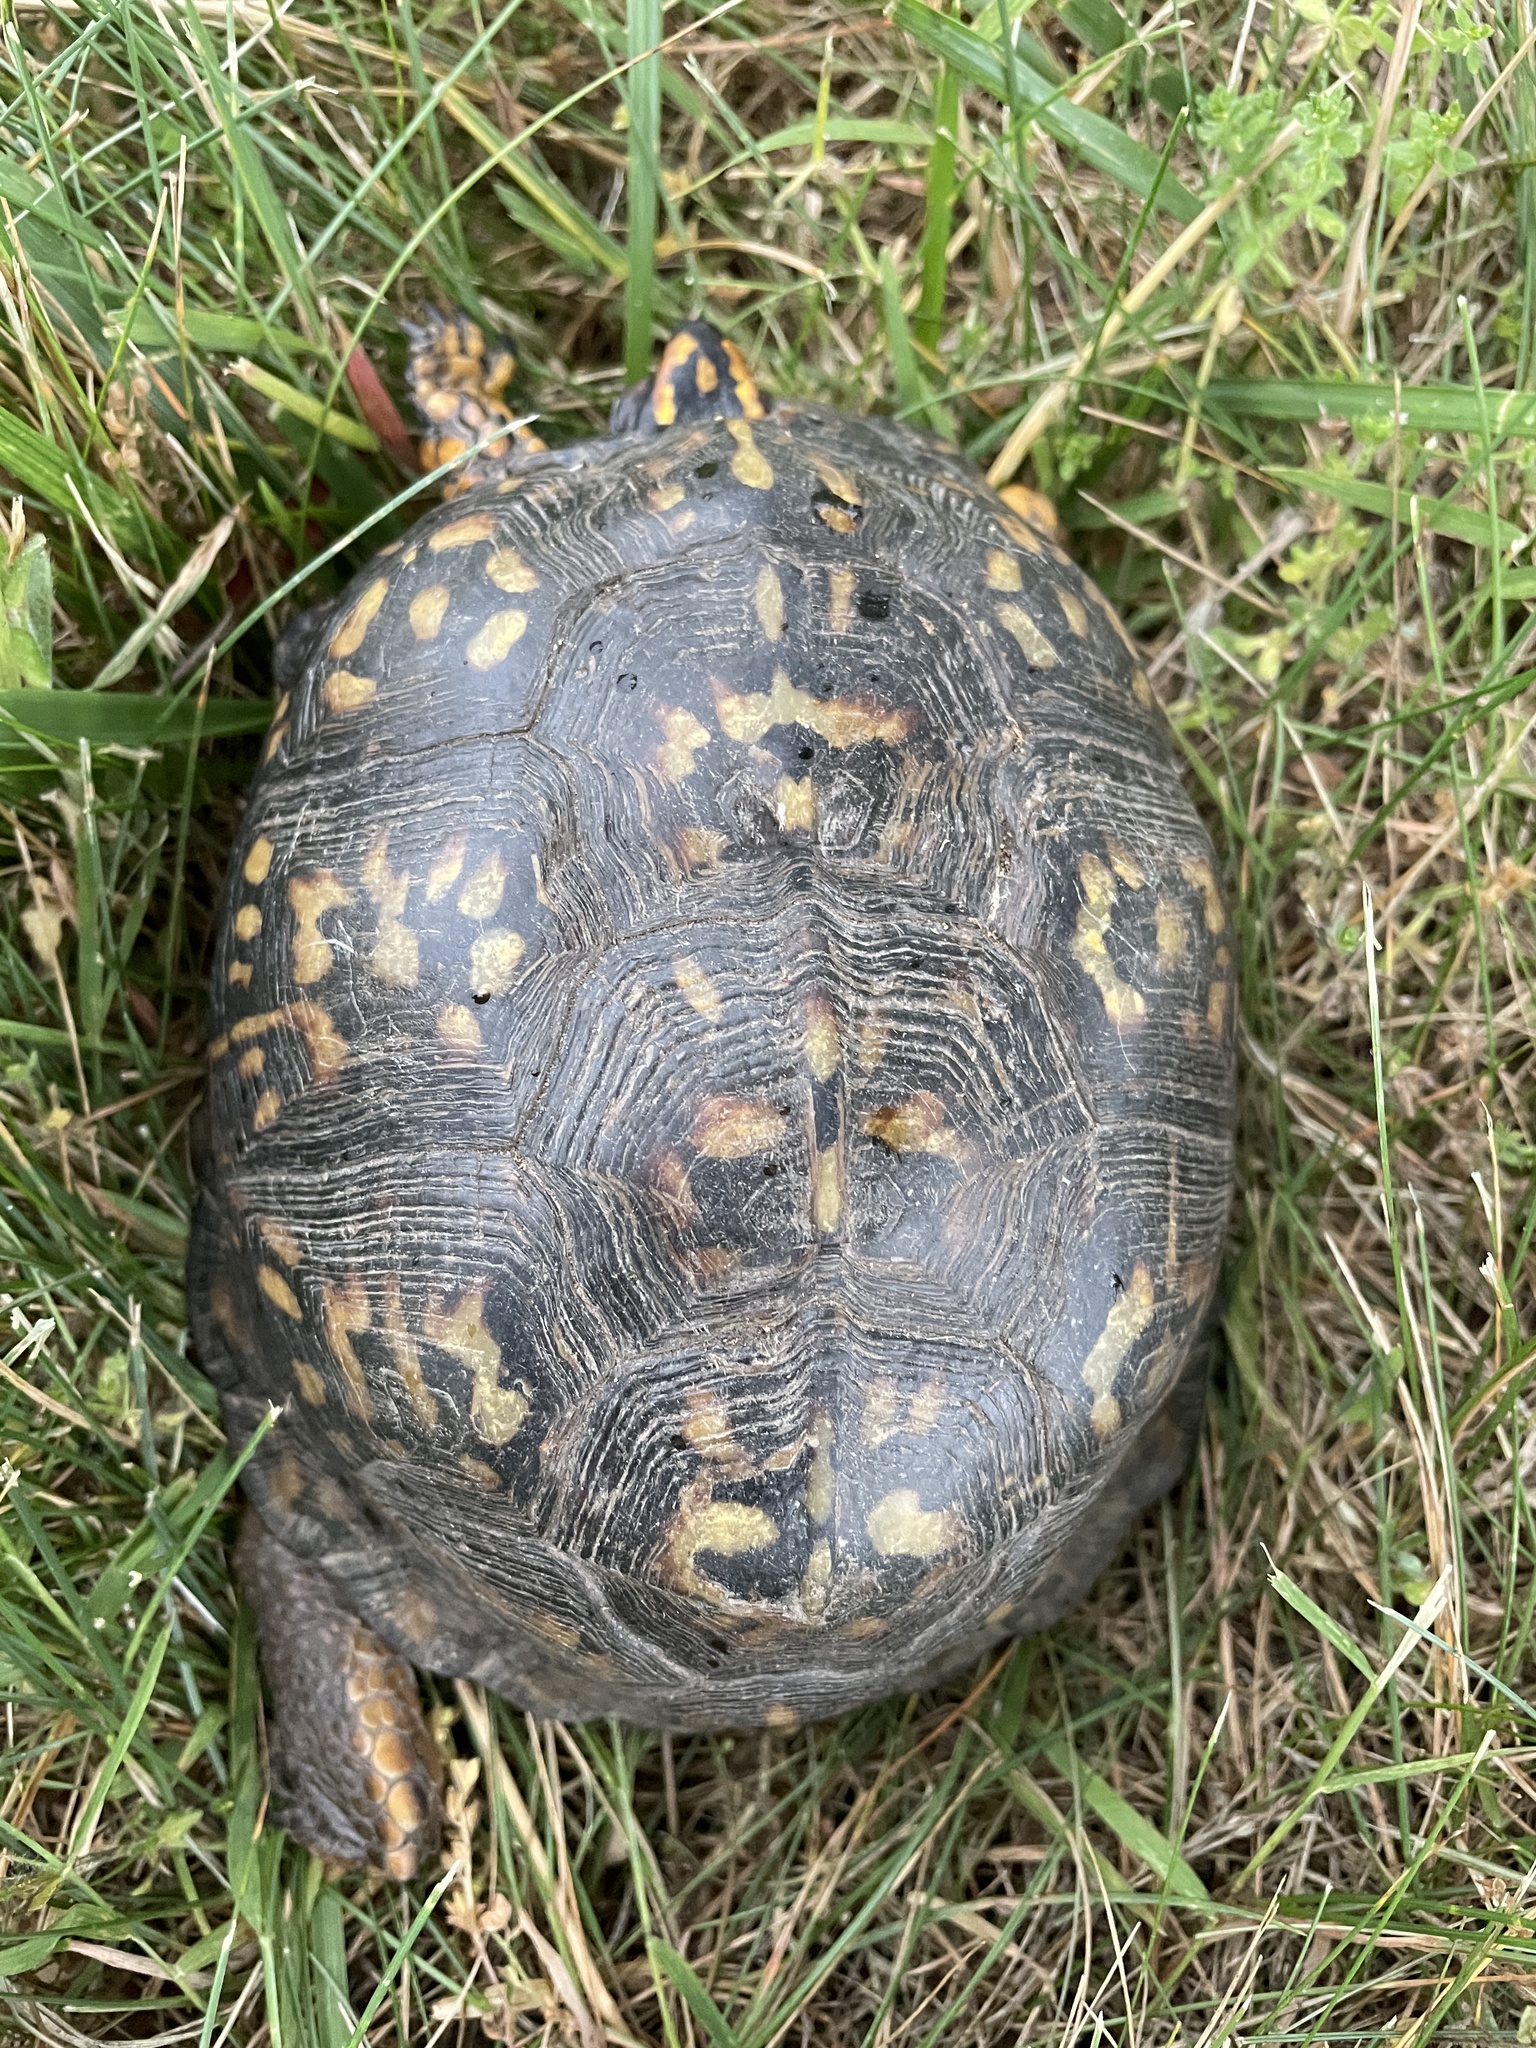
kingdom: Animalia
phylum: Chordata
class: Testudines
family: Emydidae
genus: Terrapene
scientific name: Terrapene carolina
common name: Common box turtle
